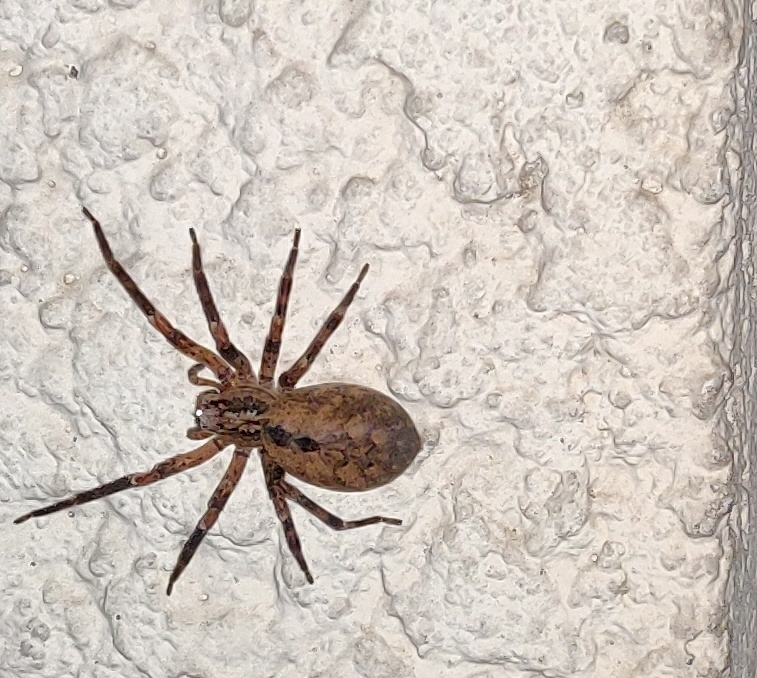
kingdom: Animalia
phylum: Arthropoda
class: Arachnida
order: Araneae
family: Zoropsidae
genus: Zoropsis
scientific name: Zoropsis spinimana
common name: Zoropsid spider
